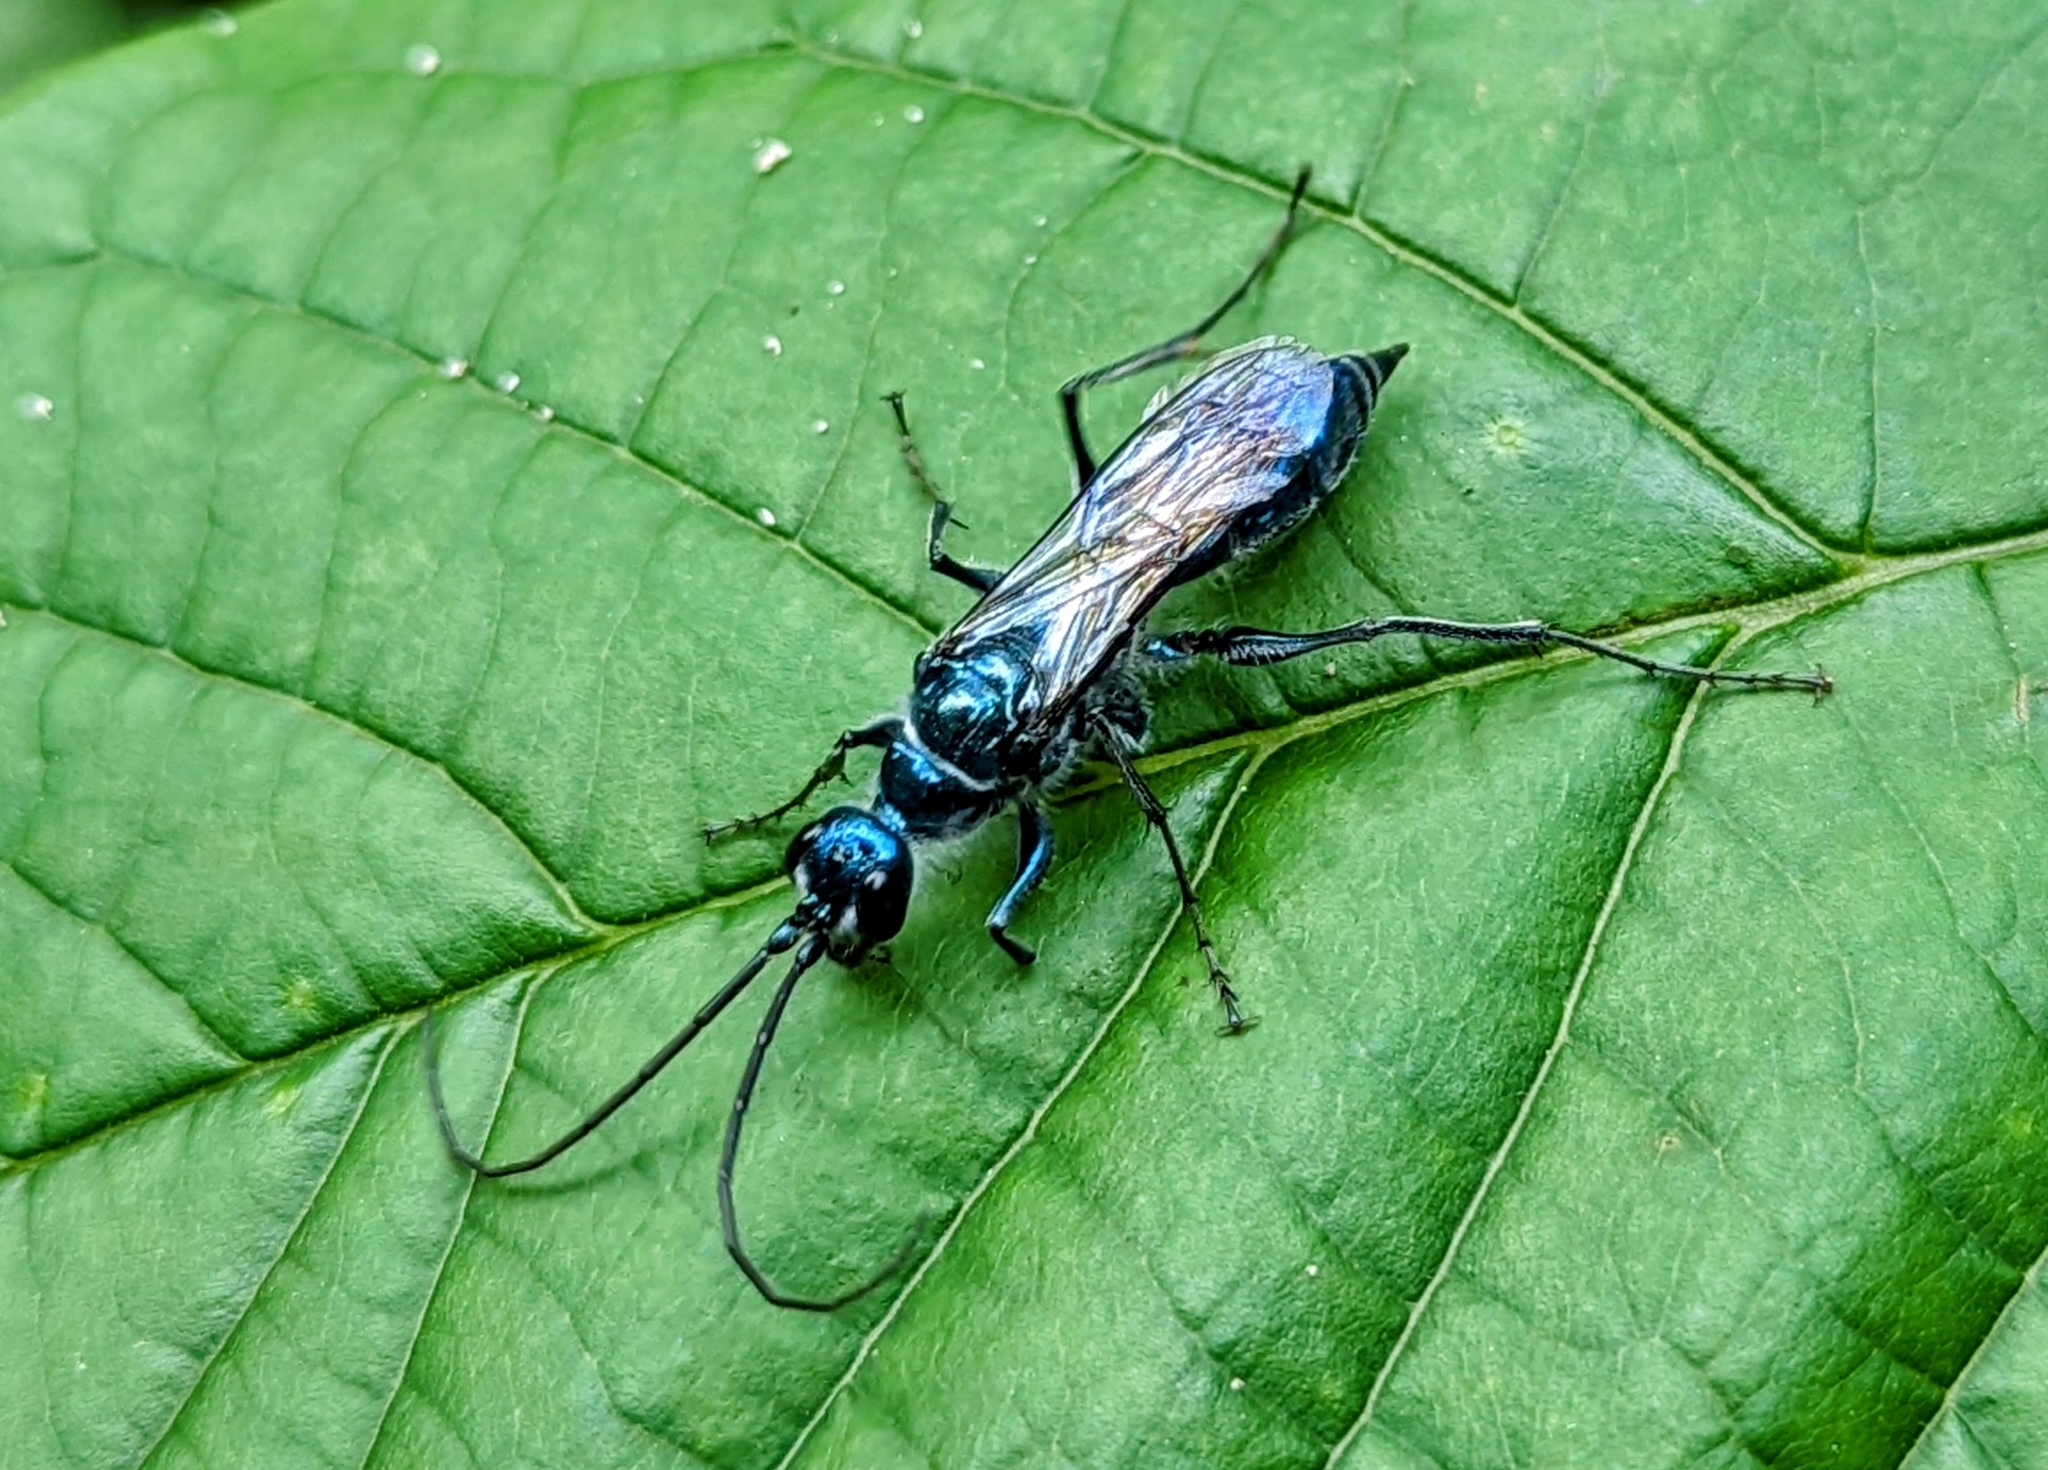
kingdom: Animalia
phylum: Arthropoda
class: Insecta
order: Hymenoptera
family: Ampulicidae
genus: Trirogma
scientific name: Trirogma caerulea
